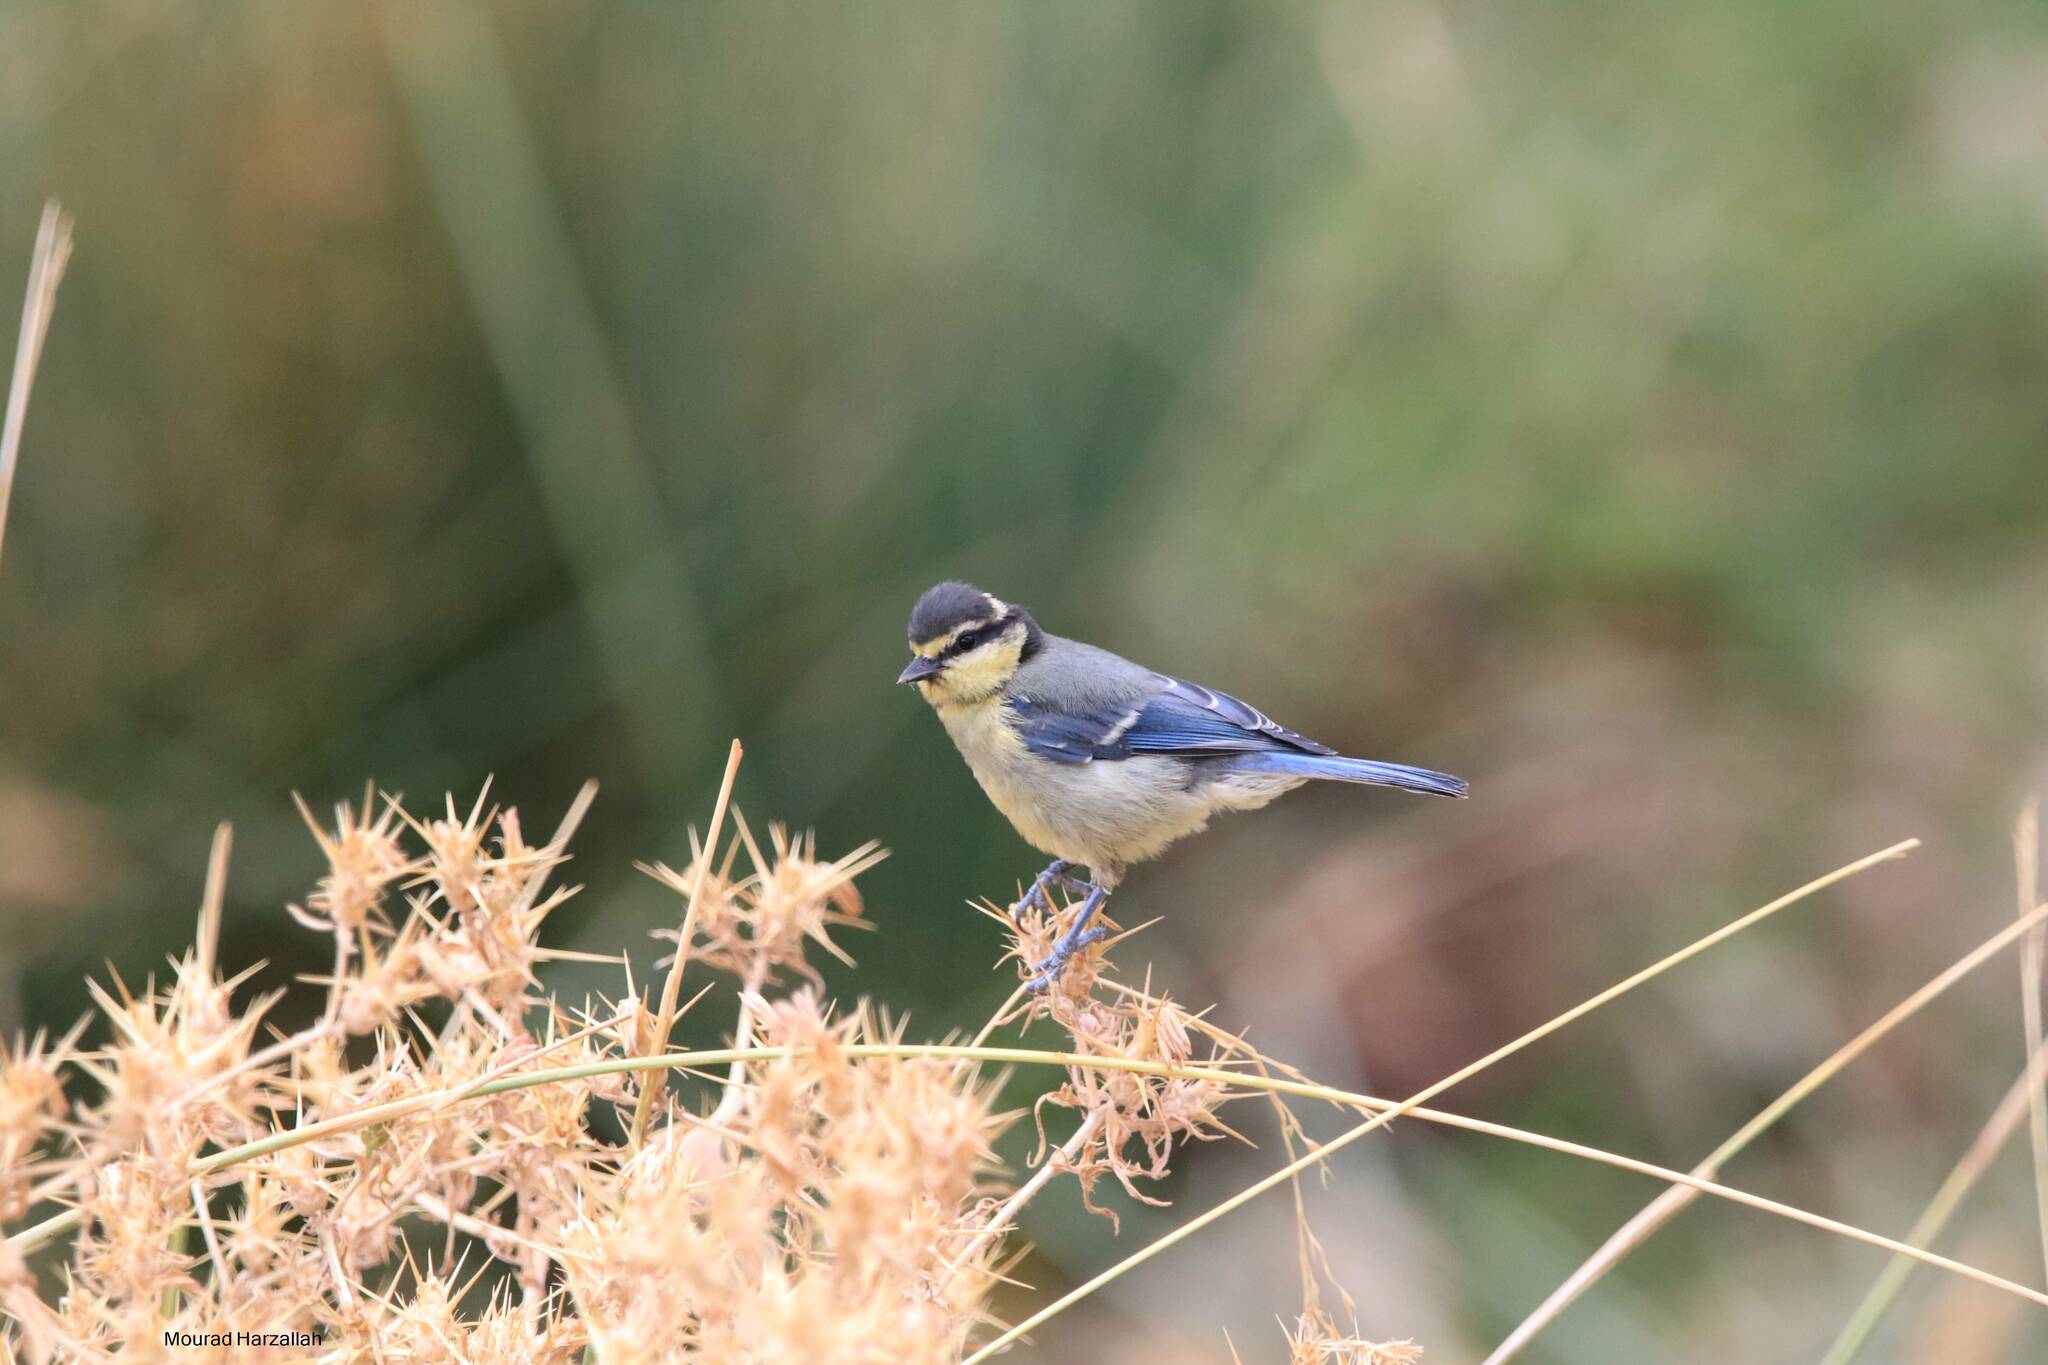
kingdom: Animalia
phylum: Chordata
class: Aves
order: Passeriformes
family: Paridae
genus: Cyanistes
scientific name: Cyanistes teneriffae
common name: African blue tit
